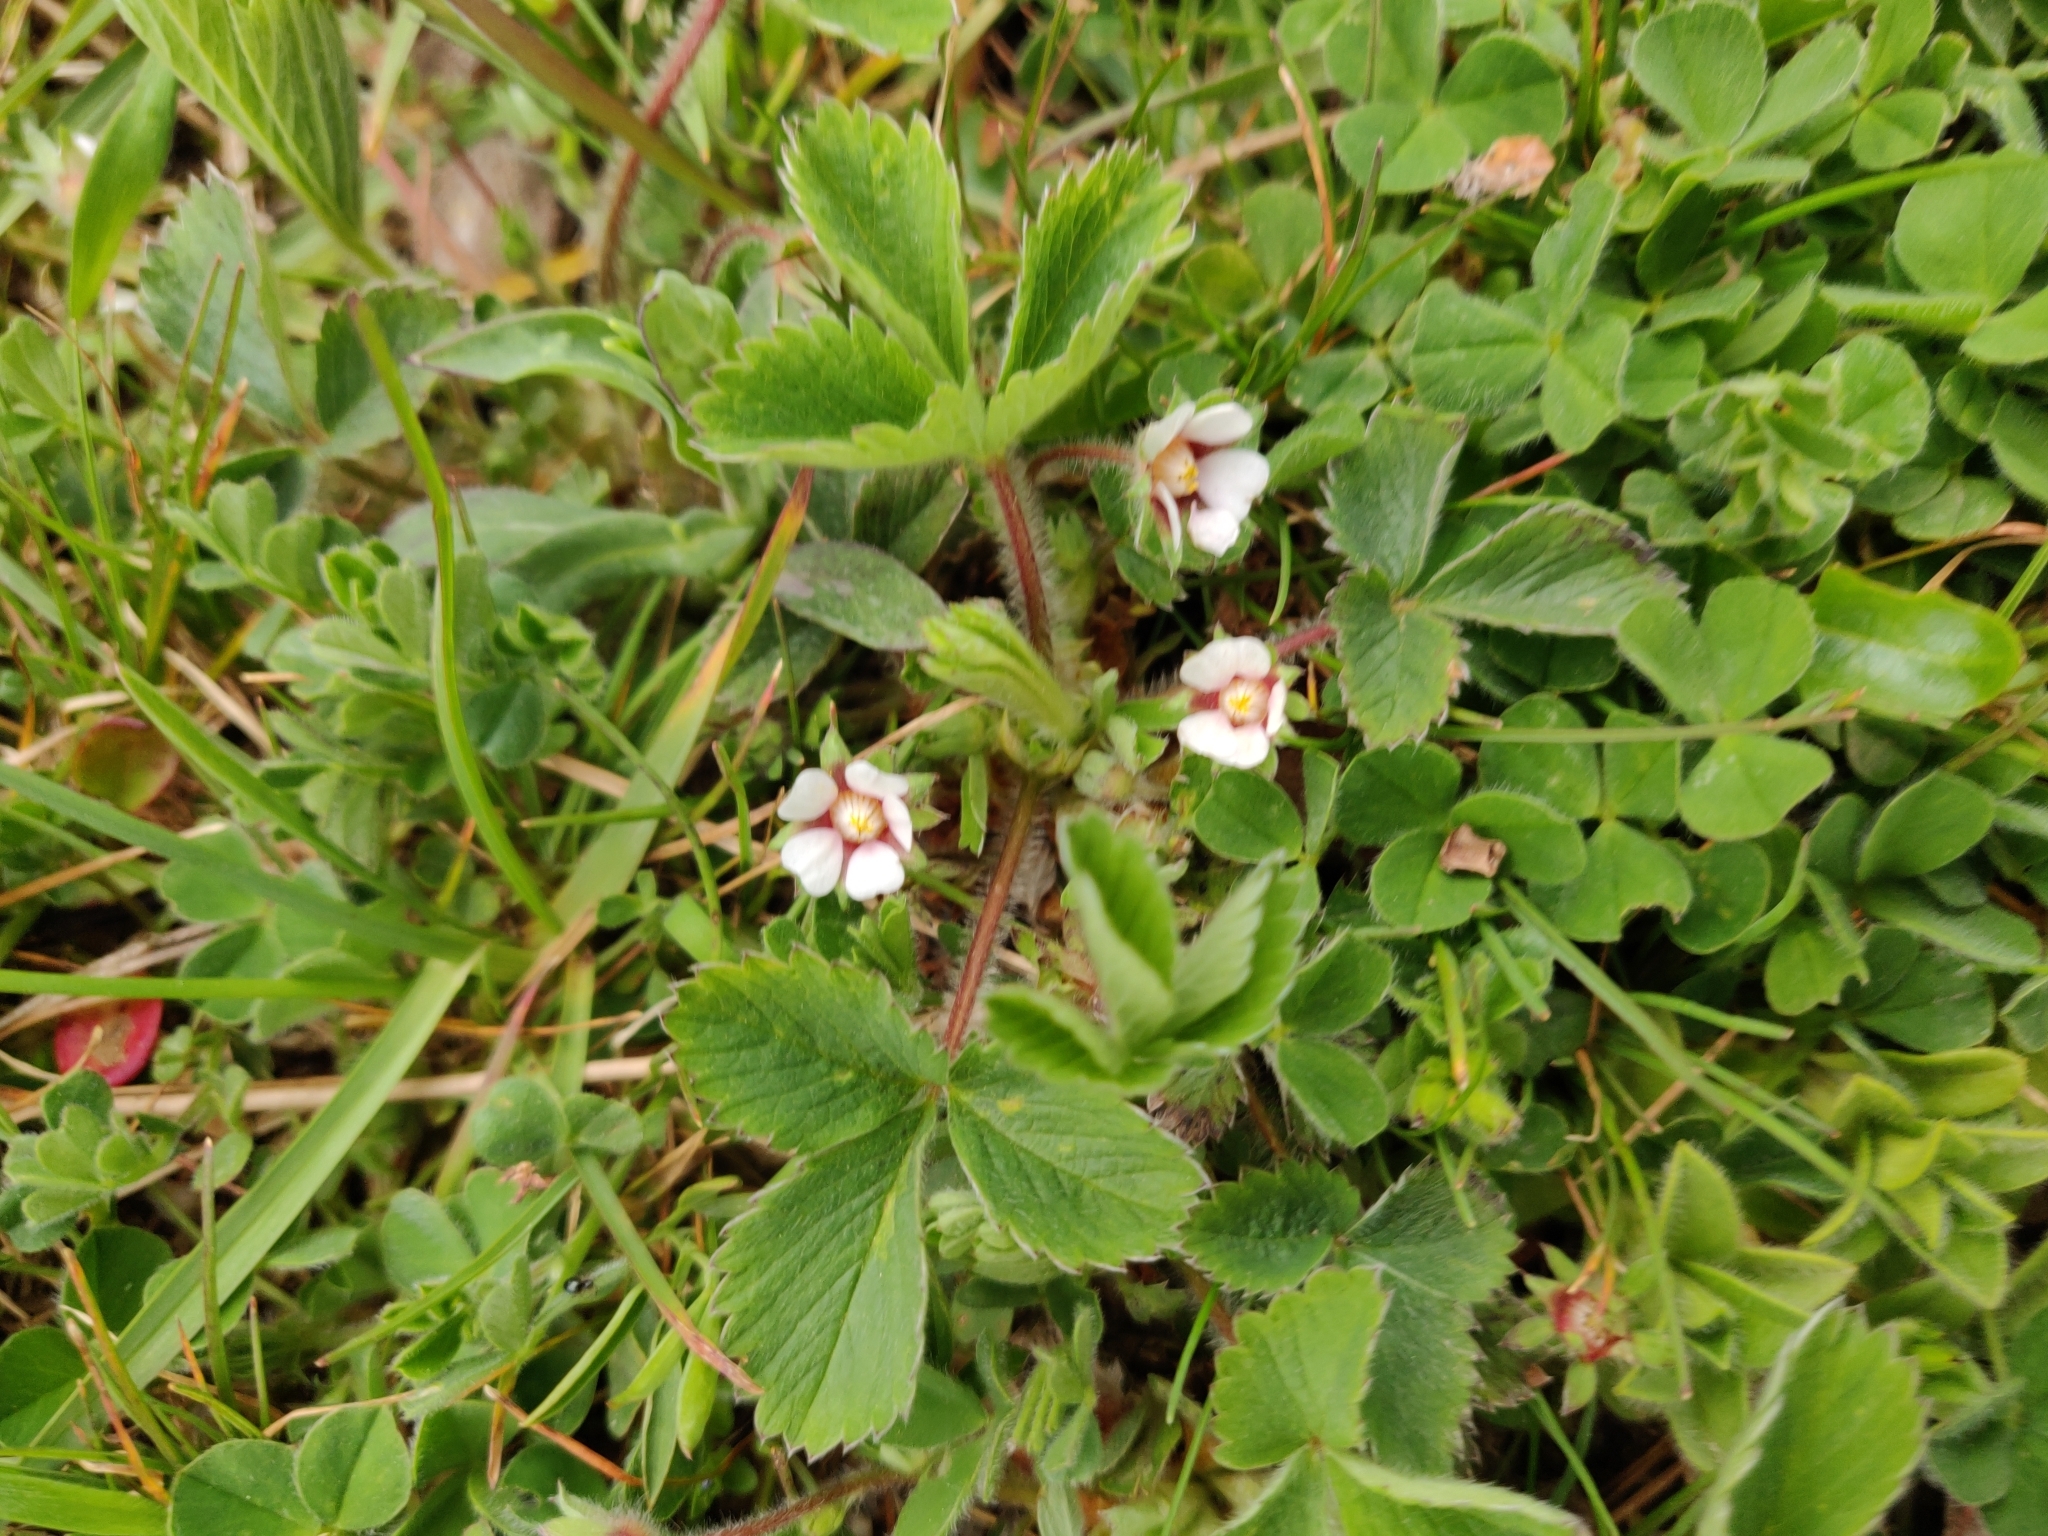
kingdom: Plantae
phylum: Tracheophyta
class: Magnoliopsida
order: Rosales
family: Rosaceae
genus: Potentilla
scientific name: Potentilla micrantha
